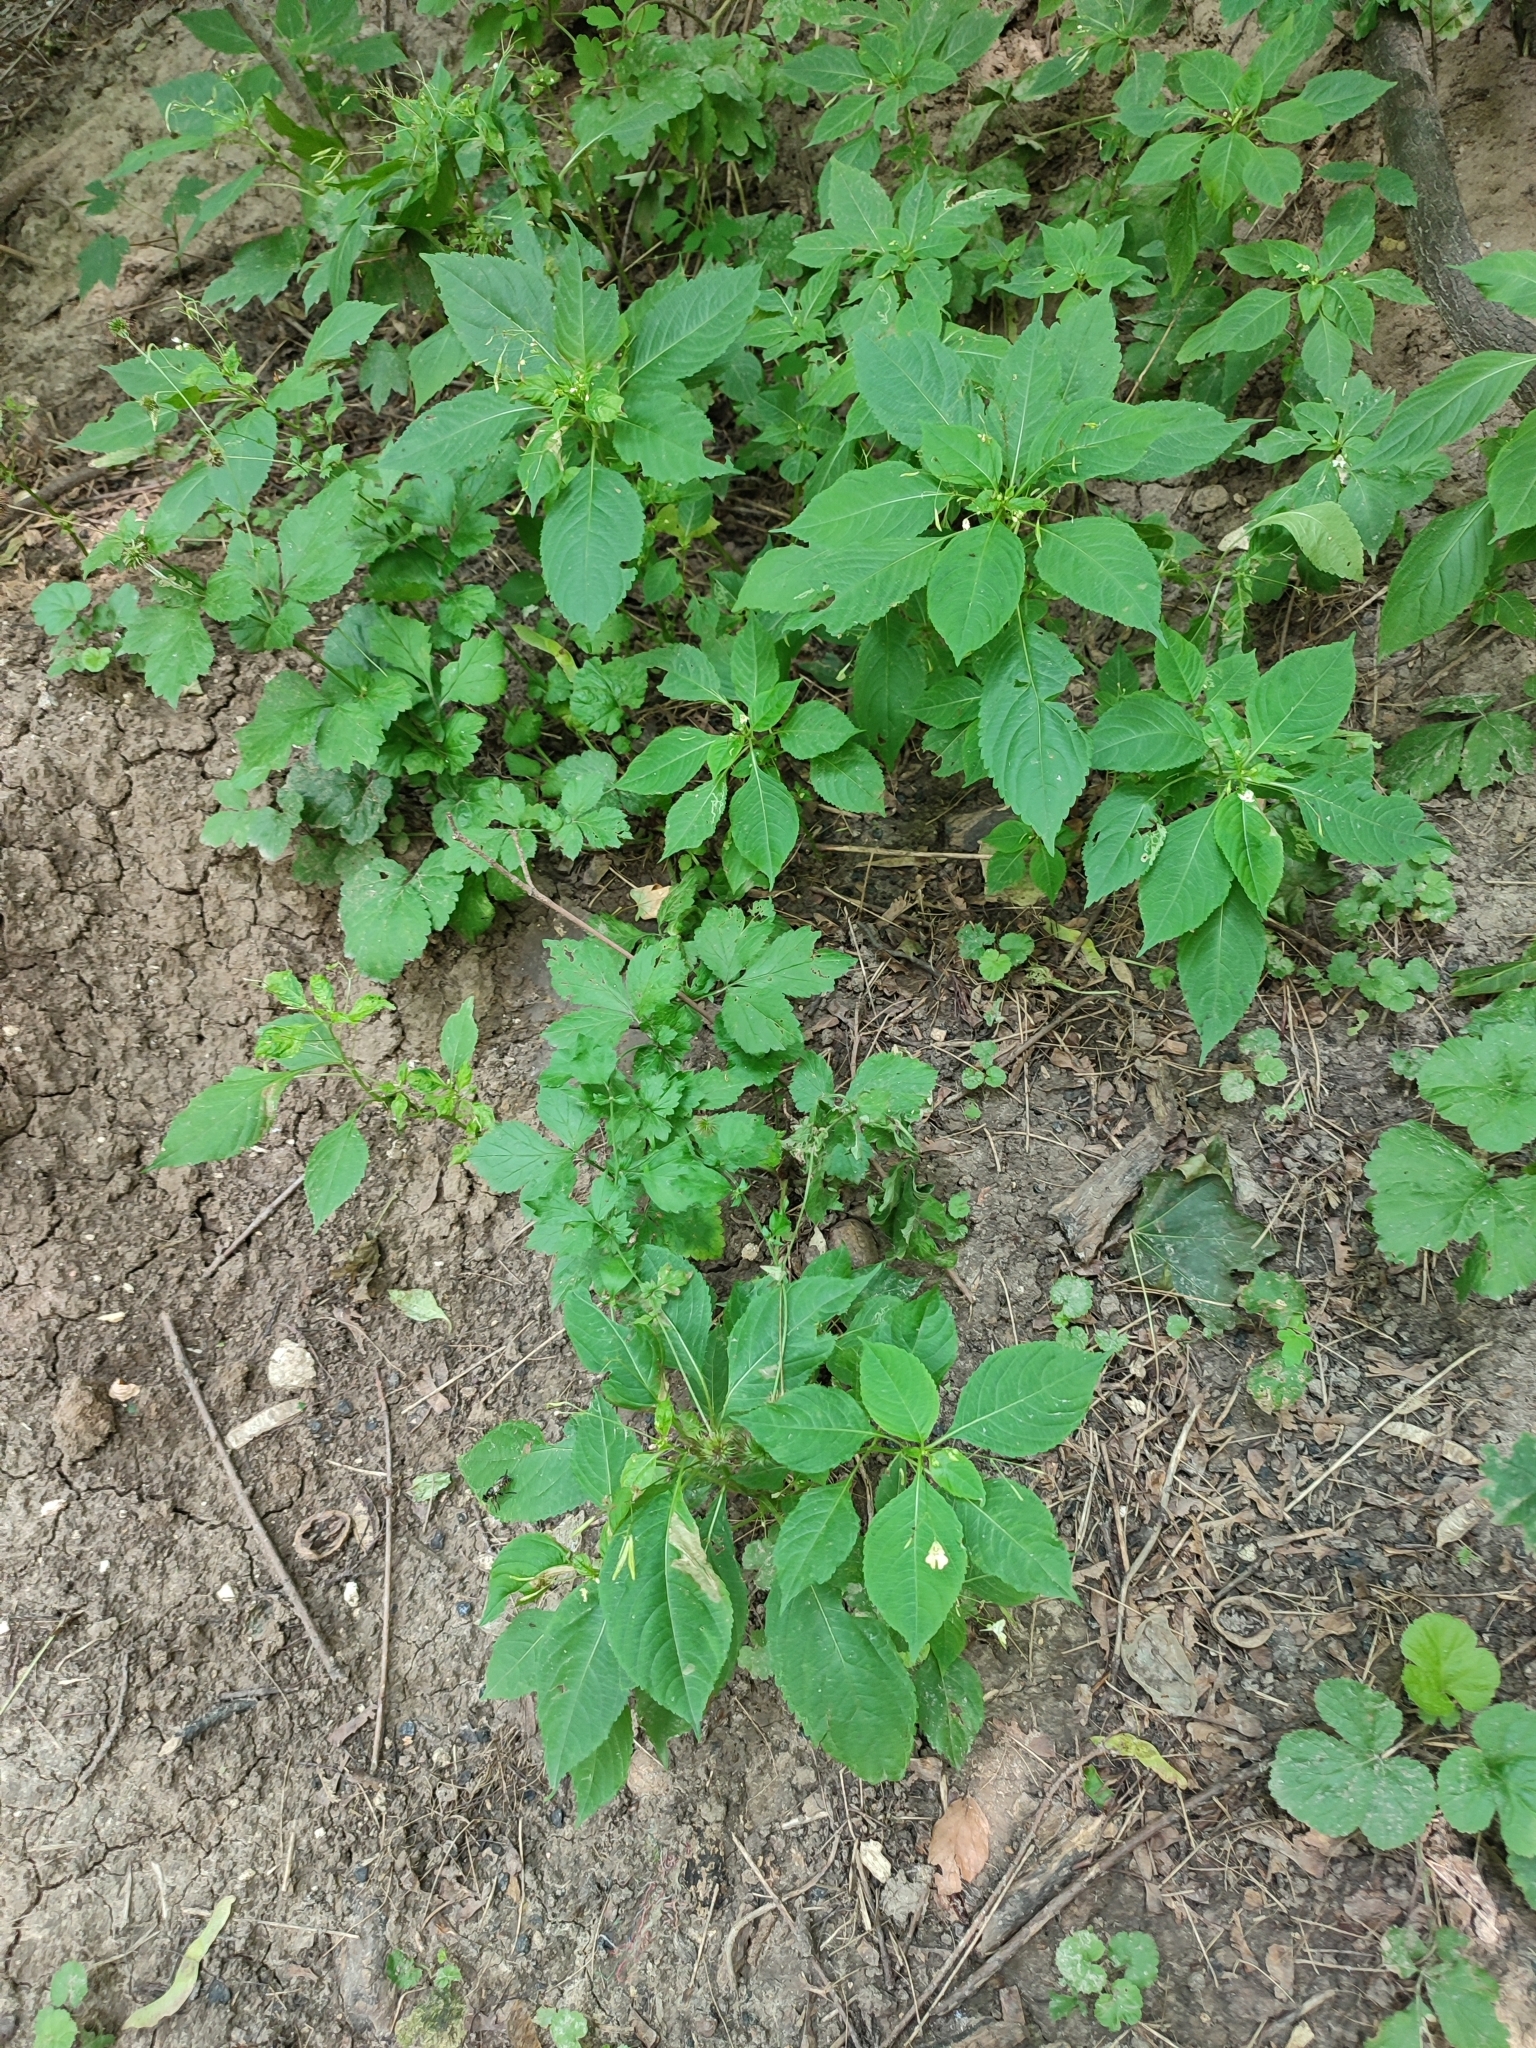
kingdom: Plantae
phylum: Tracheophyta
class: Magnoliopsida
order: Ericales
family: Balsaminaceae
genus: Impatiens
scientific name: Impatiens parviflora
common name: Small balsam
